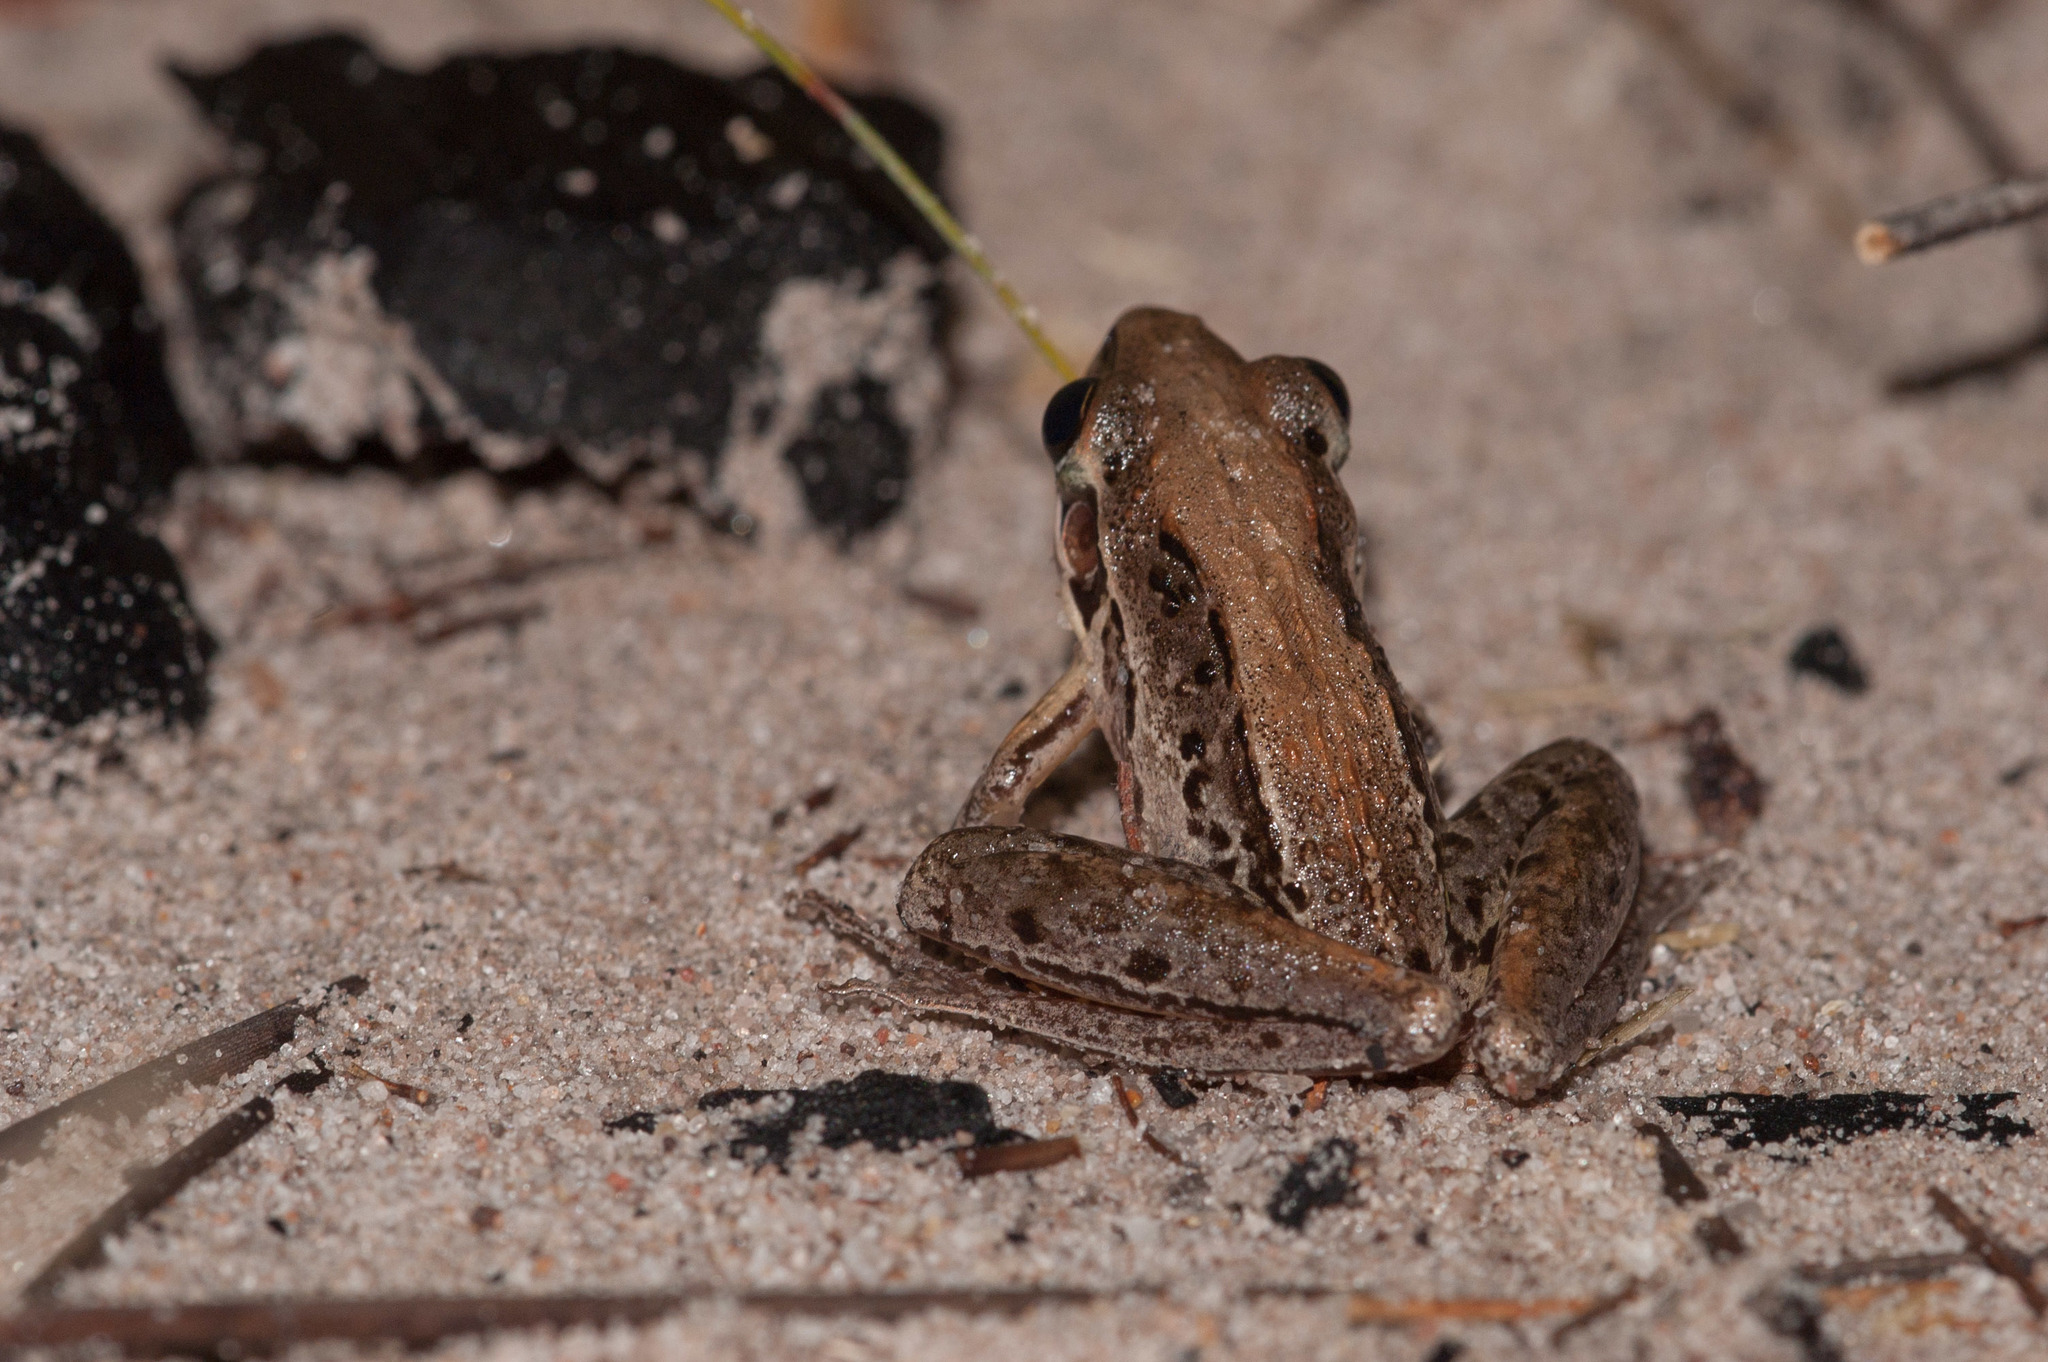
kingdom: Animalia
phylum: Chordata
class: Amphibia
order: Anura
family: Pelodryadidae
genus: Litoria
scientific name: Litoria nasuta
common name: Rocket frog
